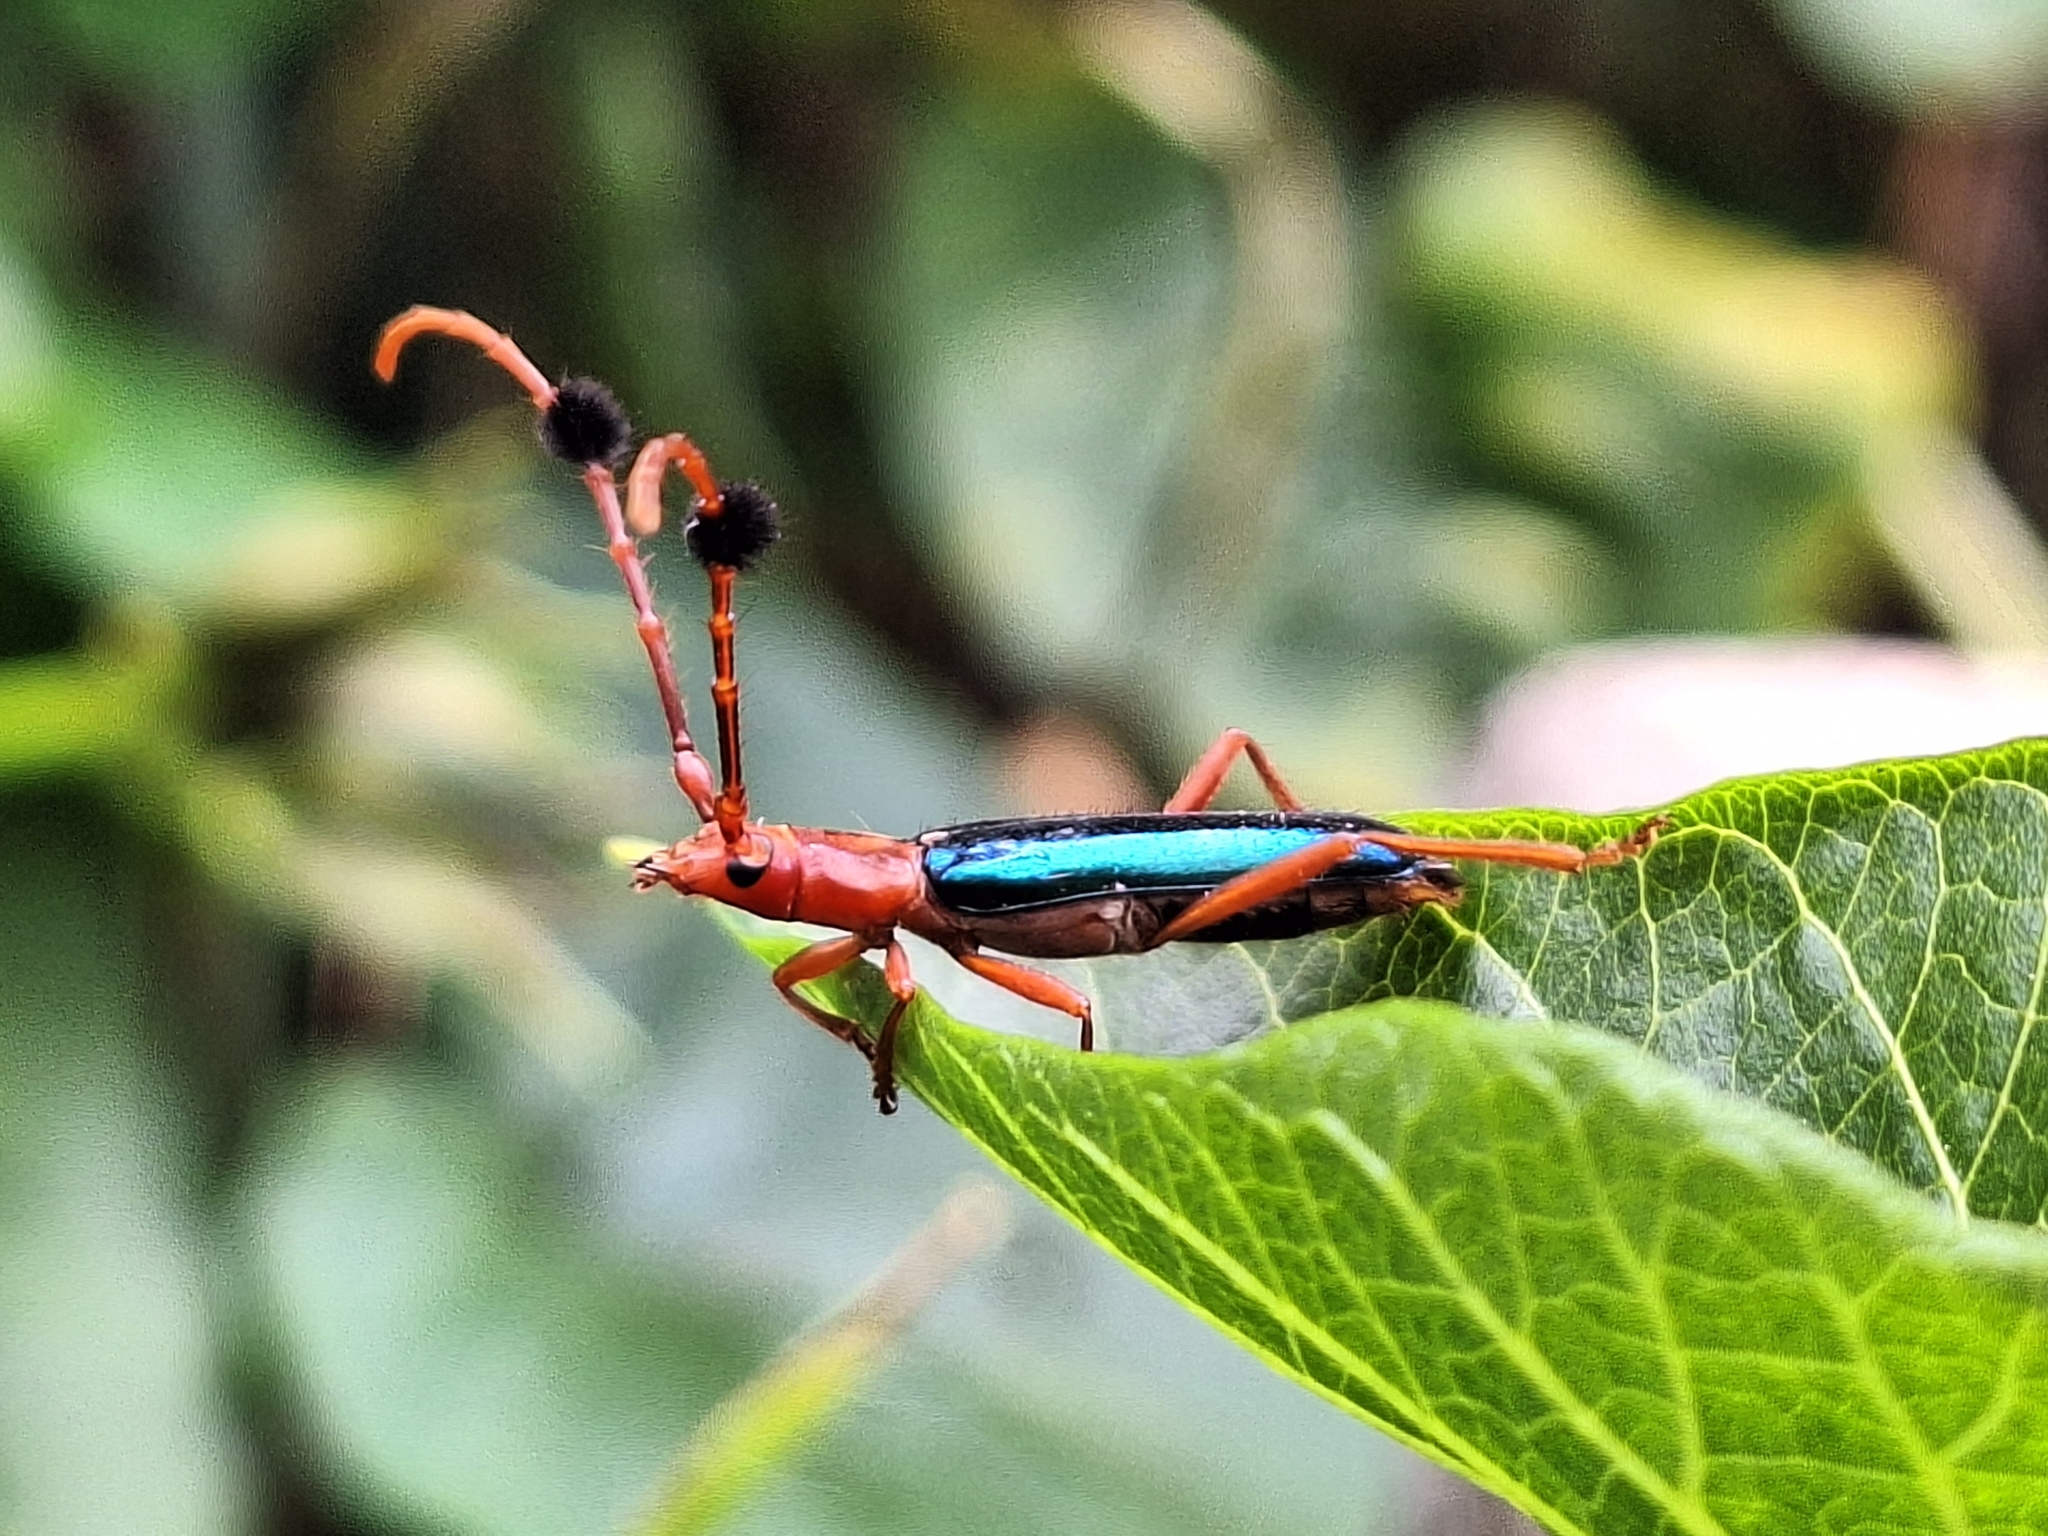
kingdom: Animalia
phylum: Arthropoda
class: Insecta
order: Coleoptera
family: Cerambycidae
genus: Compsocerus
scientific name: Compsocerus violaceus
